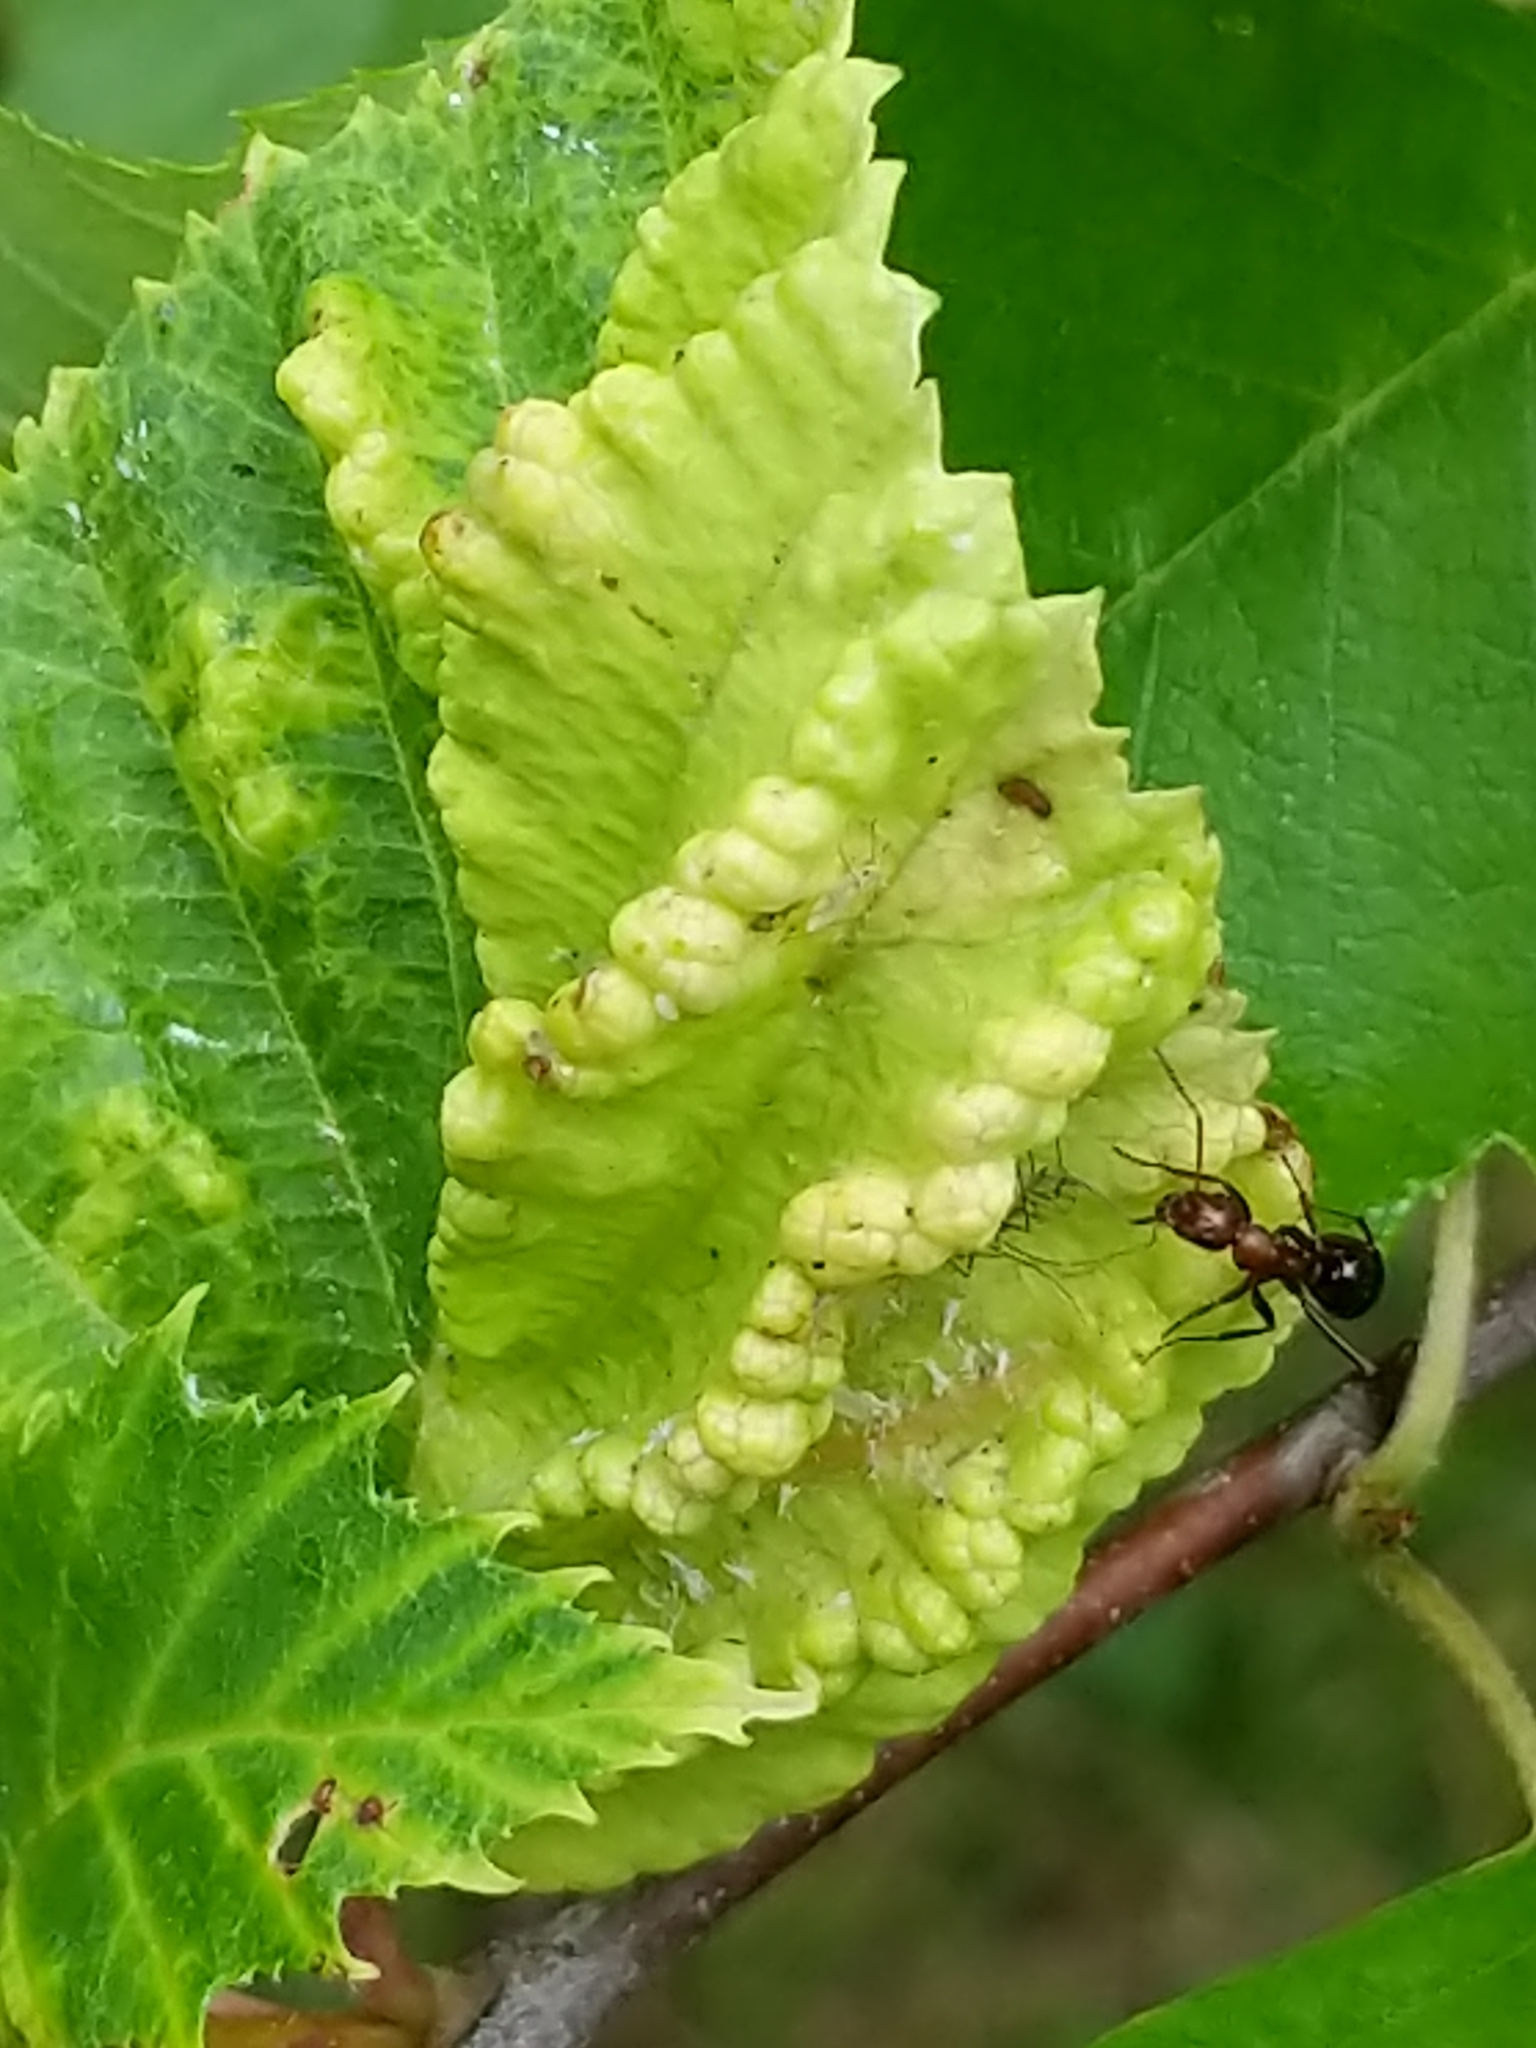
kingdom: Animalia
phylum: Arthropoda
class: Insecta
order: Hemiptera
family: Aphididae
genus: Hamamelistes
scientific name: Hamamelistes spinosus
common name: Witch hazel gall aphid
